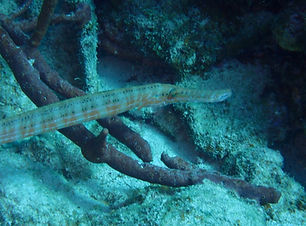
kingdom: Animalia
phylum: Chordata
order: Syngnathiformes
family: Aulostomidae
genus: Aulostomus
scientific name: Aulostomus maculatus
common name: West atlantic trumpetfish
